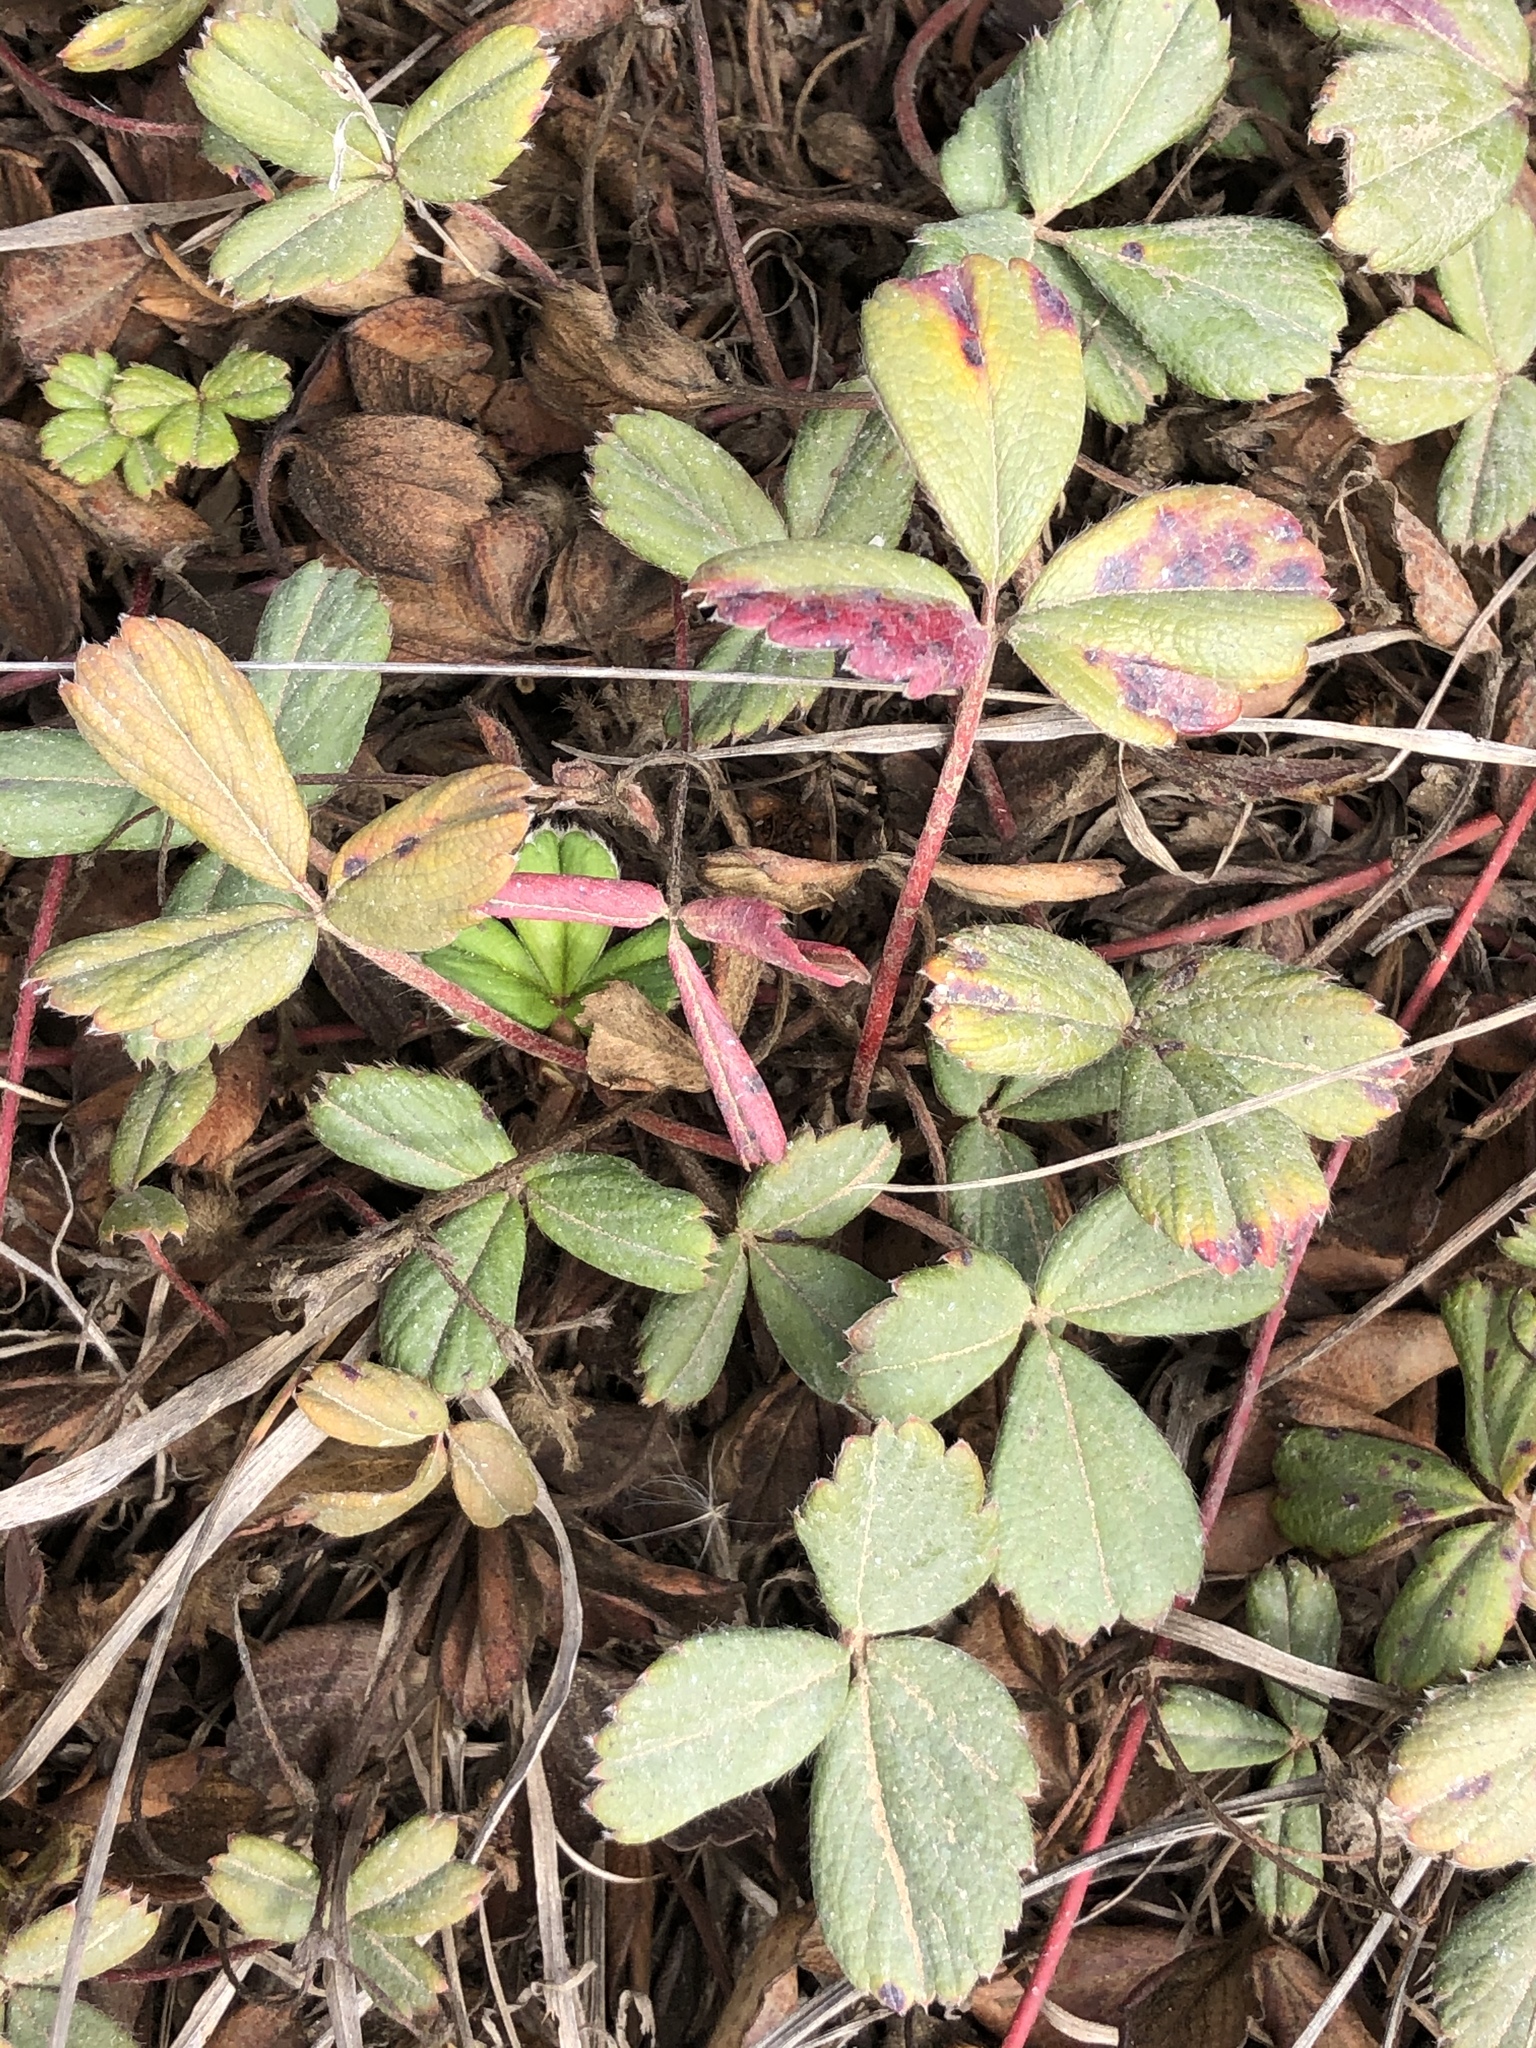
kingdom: Plantae
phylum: Tracheophyta
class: Magnoliopsida
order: Rosales
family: Rosaceae
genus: Fragaria
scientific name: Fragaria chiloensis
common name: Beach strawberry
